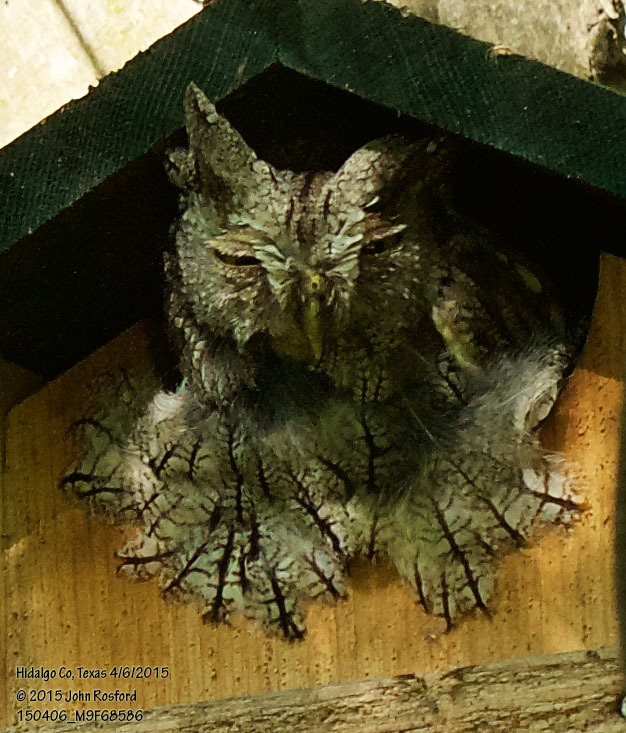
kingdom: Animalia
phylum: Chordata
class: Aves
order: Strigiformes
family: Strigidae
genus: Megascops
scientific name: Megascops asio
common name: Eastern screech-owl
